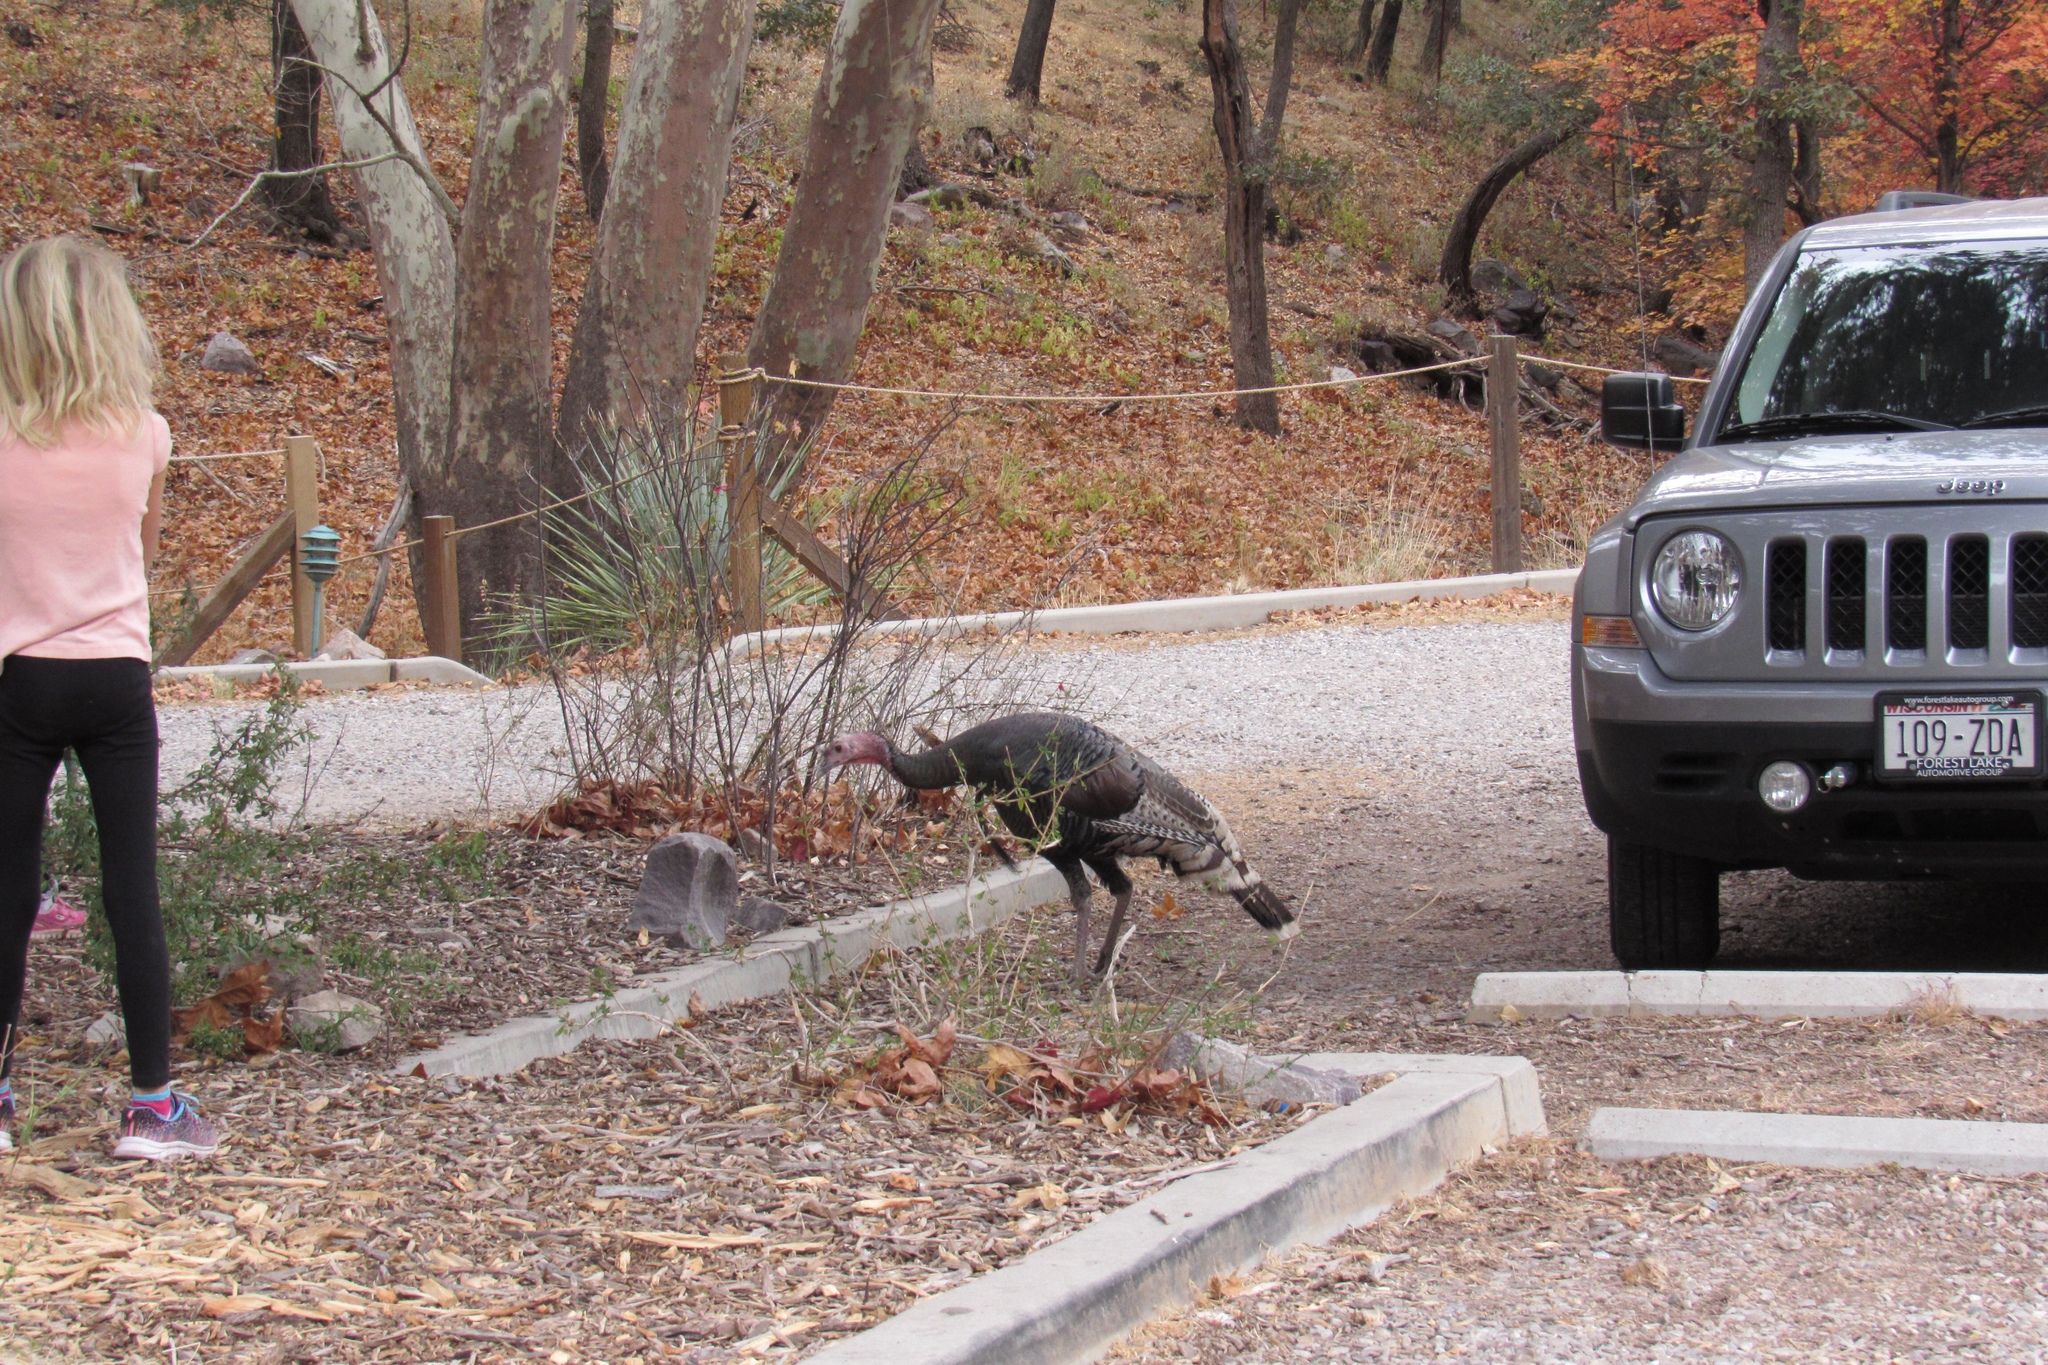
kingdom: Animalia
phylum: Chordata
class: Aves
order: Galliformes
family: Phasianidae
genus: Meleagris
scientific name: Meleagris gallopavo
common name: Wild turkey
